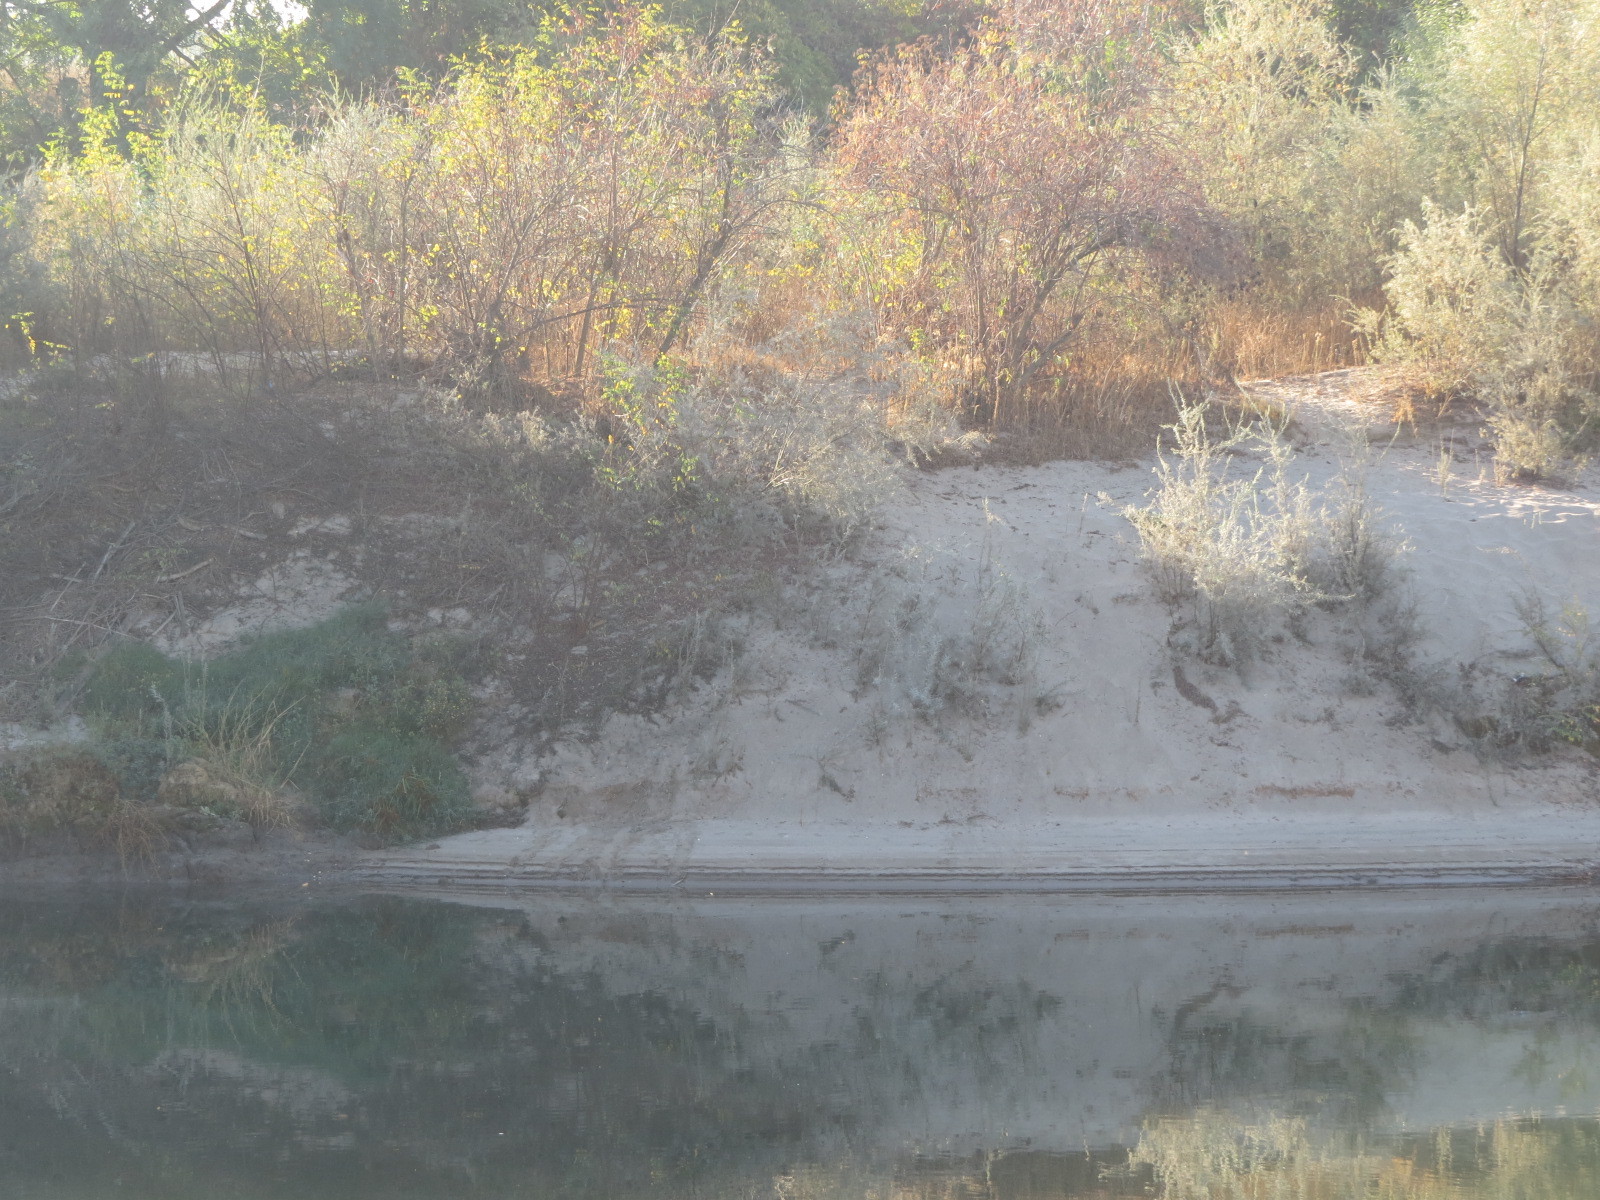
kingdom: Animalia
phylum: Chordata
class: Mammalia
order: Carnivora
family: Mustelidae
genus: Lontra
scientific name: Lontra canadensis
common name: North american river otter
